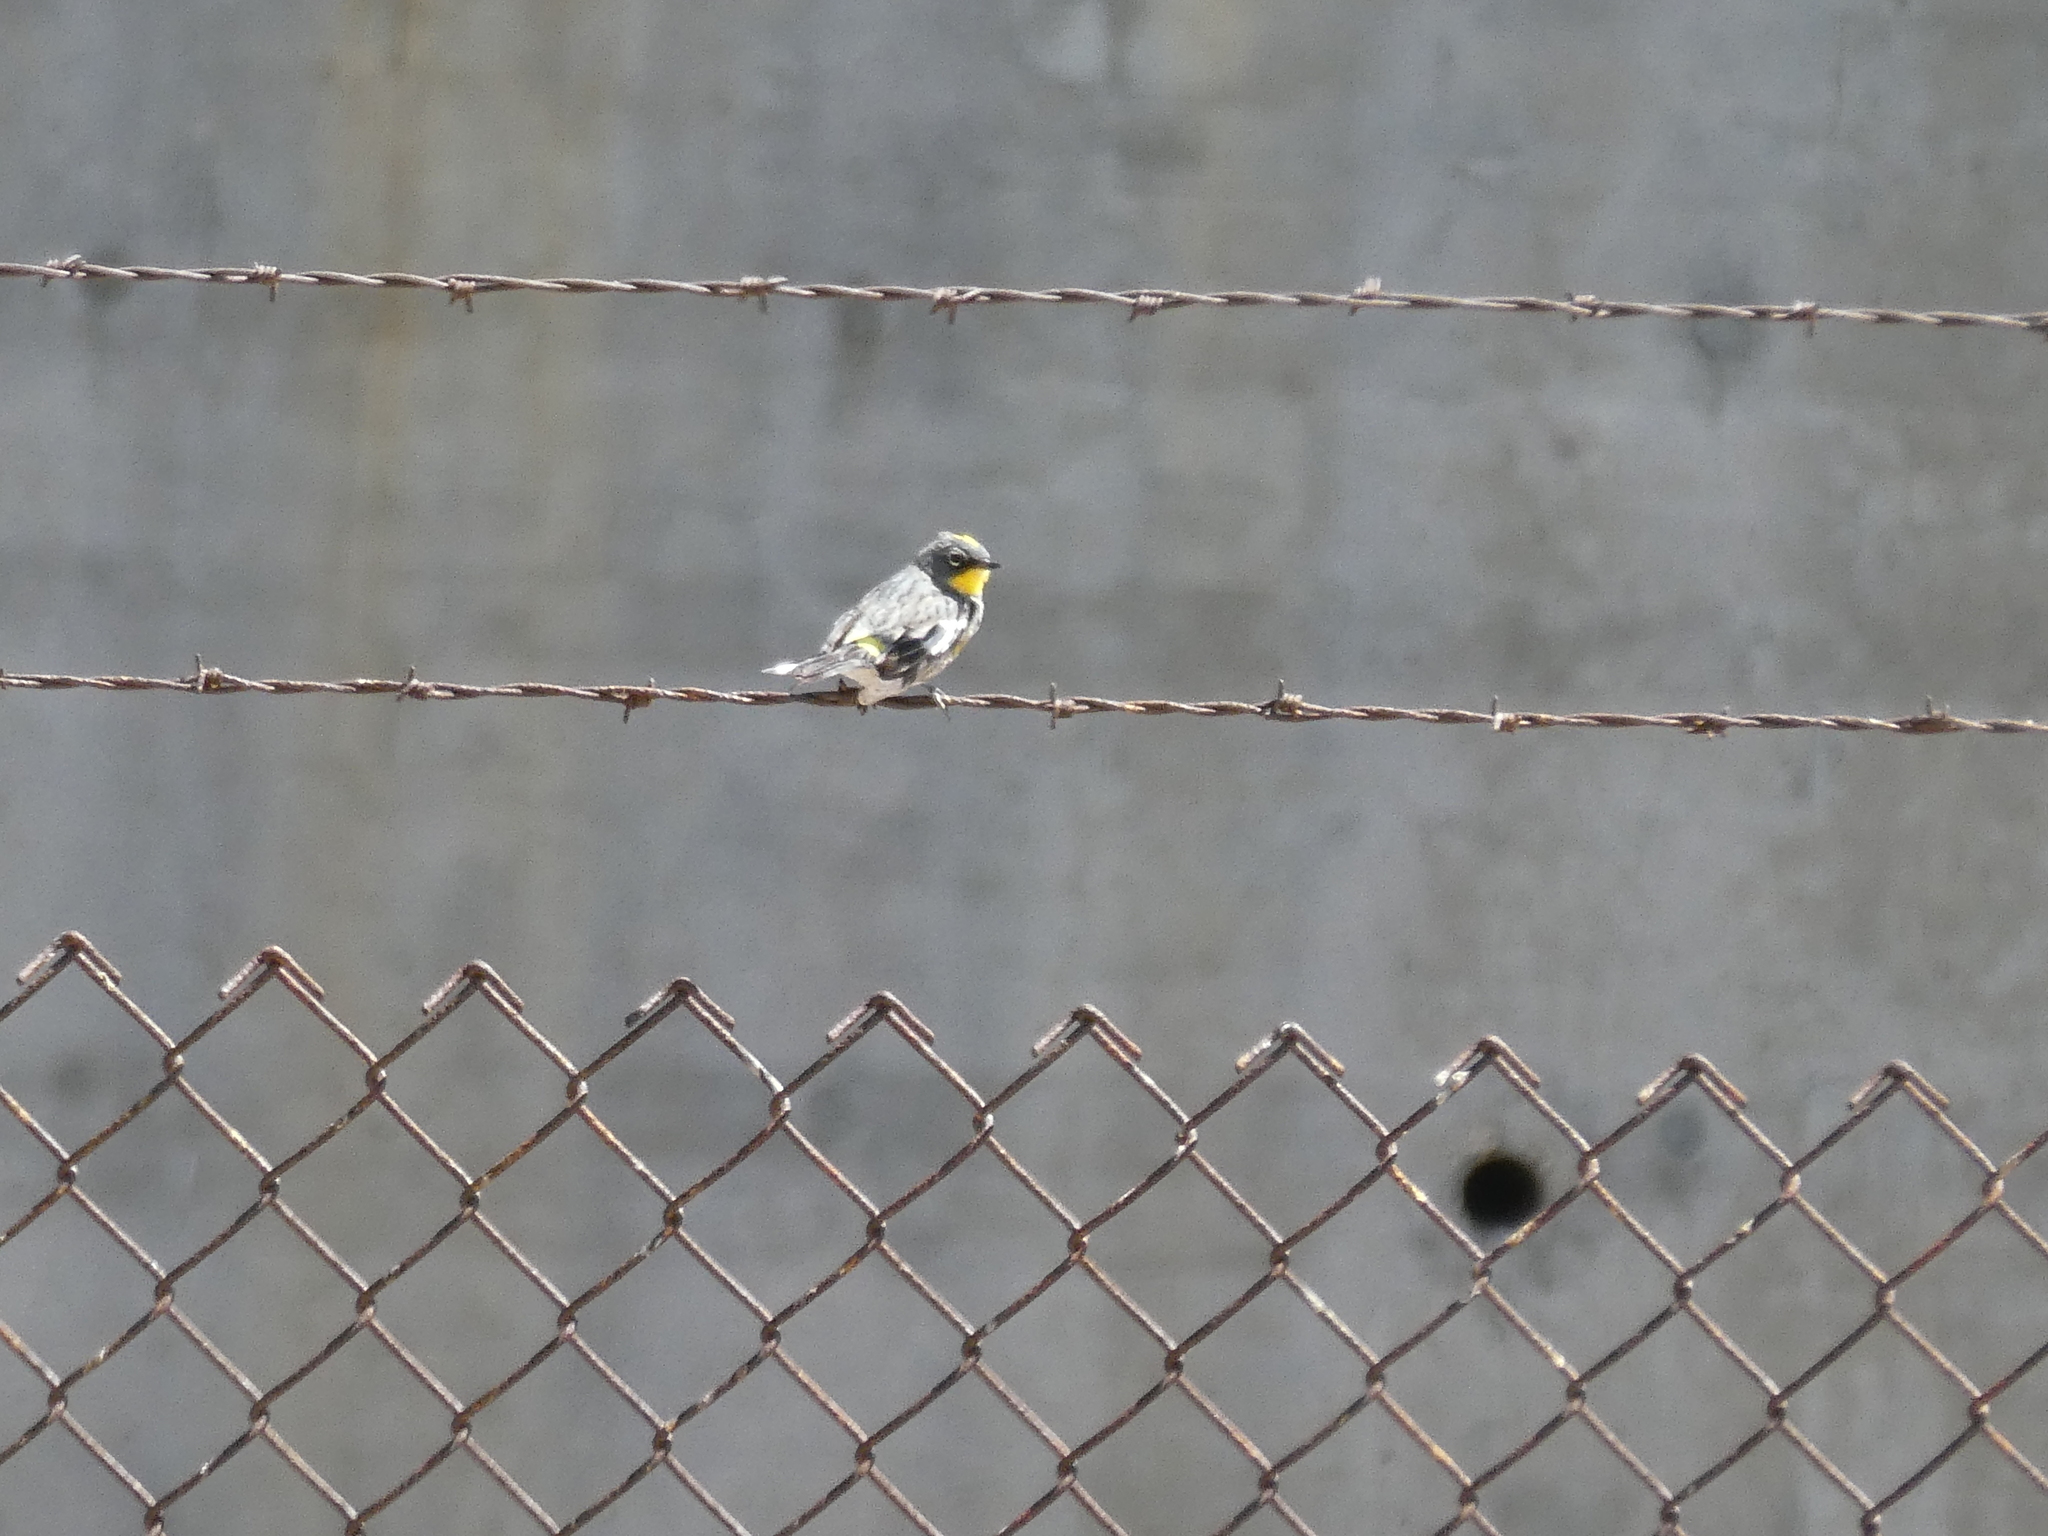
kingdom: Animalia
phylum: Chordata
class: Aves
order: Passeriformes
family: Parulidae
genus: Setophaga
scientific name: Setophaga coronata
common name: Myrtle warbler
